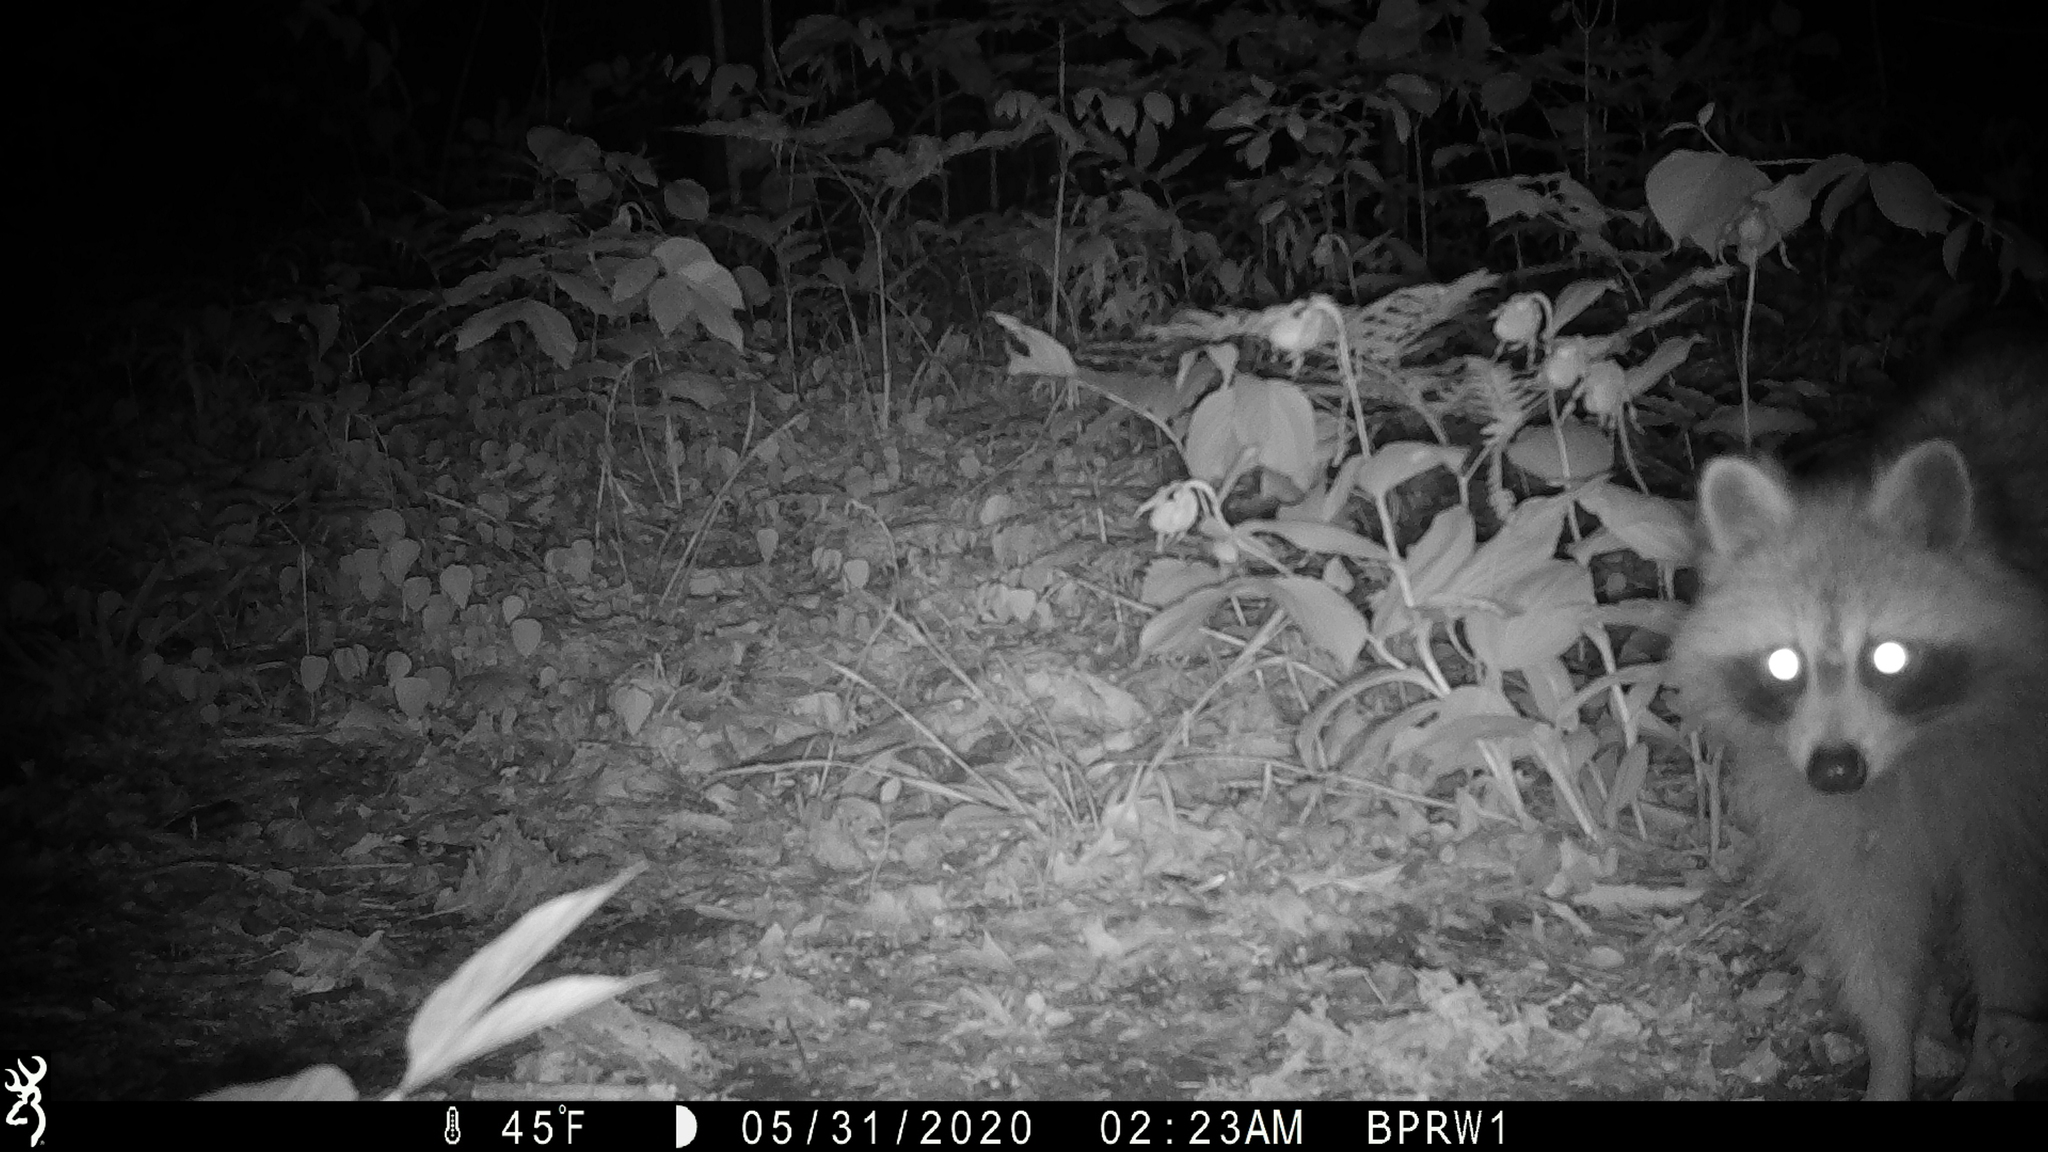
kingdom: Animalia
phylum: Chordata
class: Mammalia
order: Carnivora
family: Procyonidae
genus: Procyon
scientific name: Procyon lotor
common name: Raccoon
